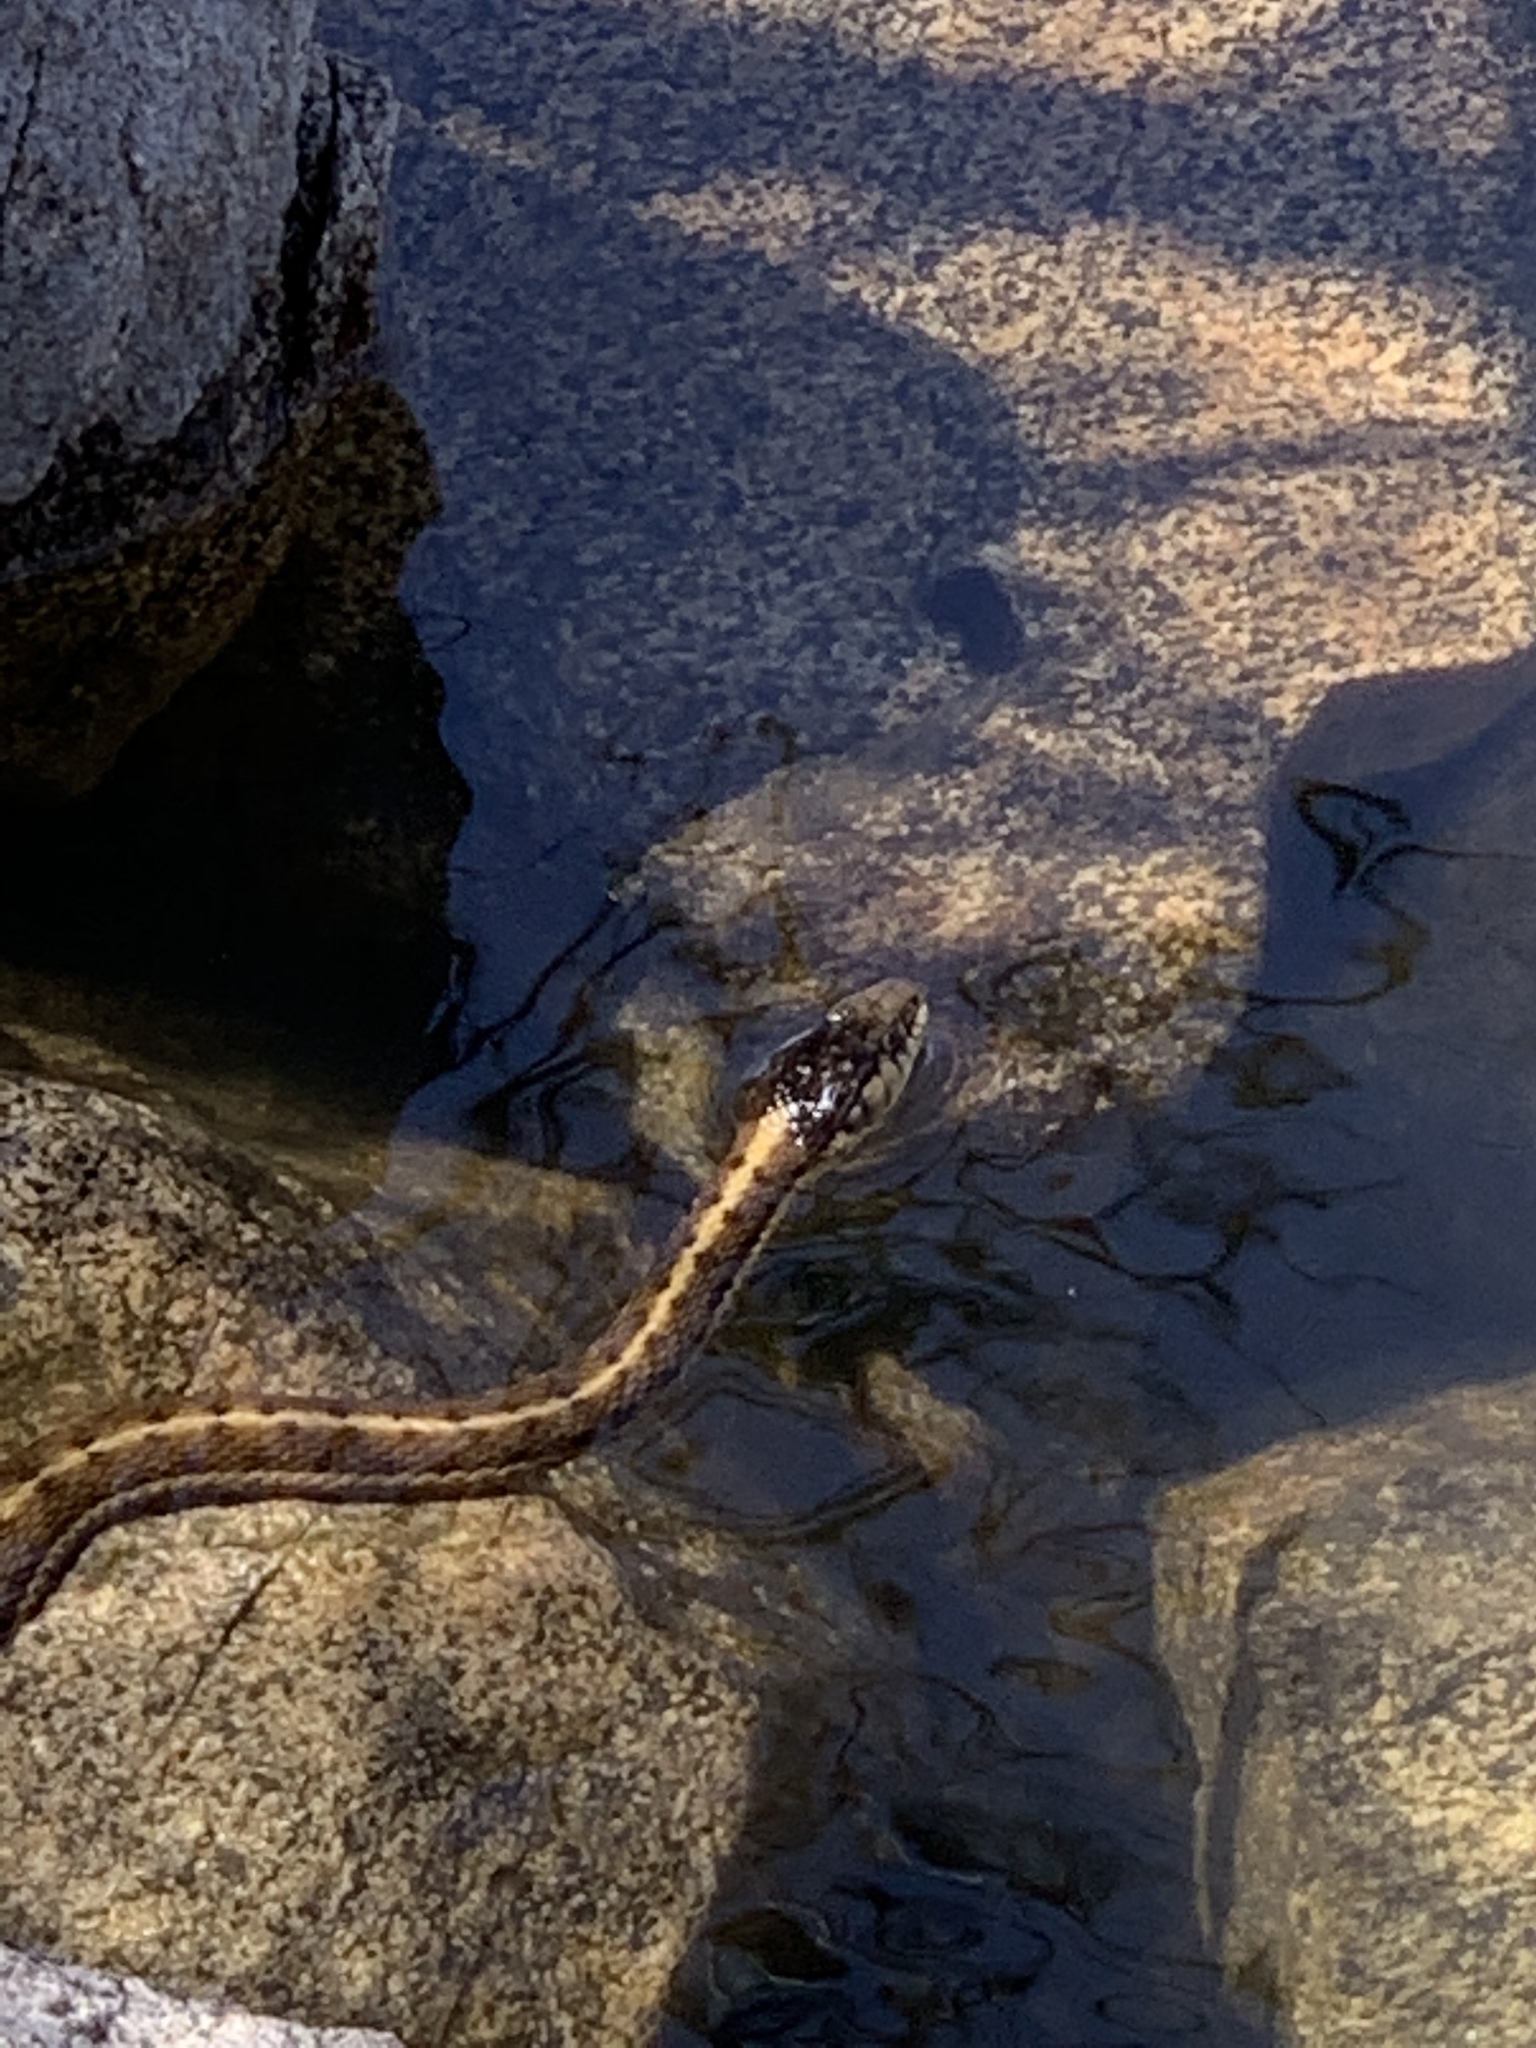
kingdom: Animalia
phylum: Chordata
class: Squamata
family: Colubridae
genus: Thamnophis
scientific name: Thamnophis elegans
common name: Western terrestrial garter snake
